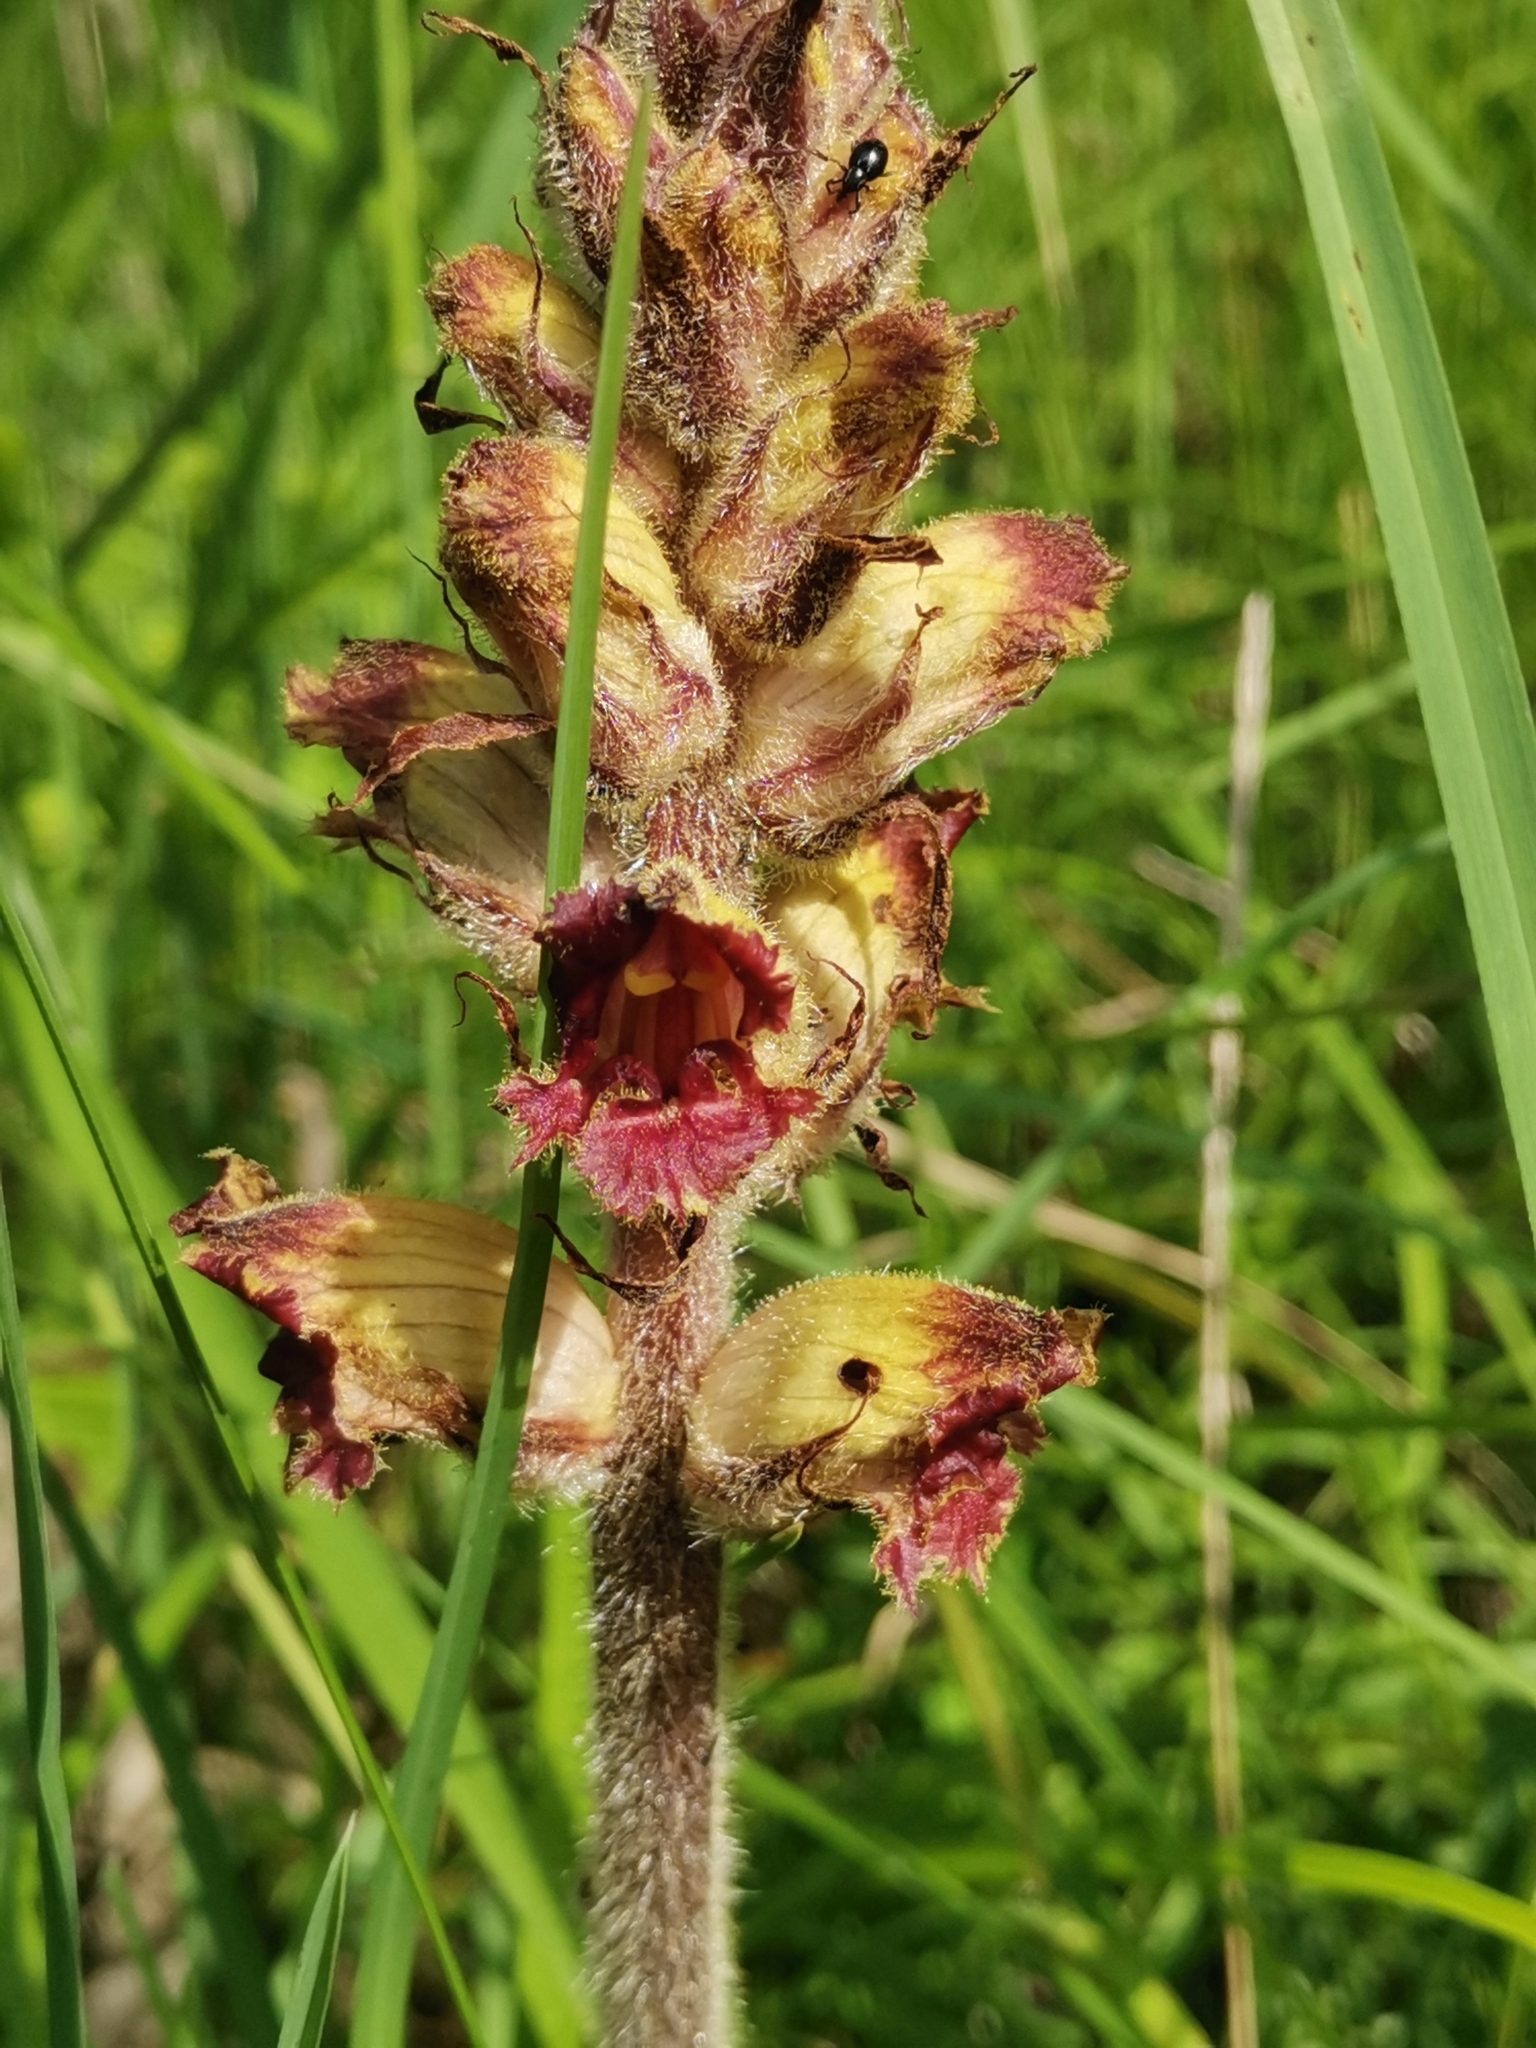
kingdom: Plantae
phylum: Tracheophyta
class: Magnoliopsida
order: Lamiales
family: Orobanchaceae
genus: Orobanche
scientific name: Orobanche gracilis
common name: Slender broomrape
